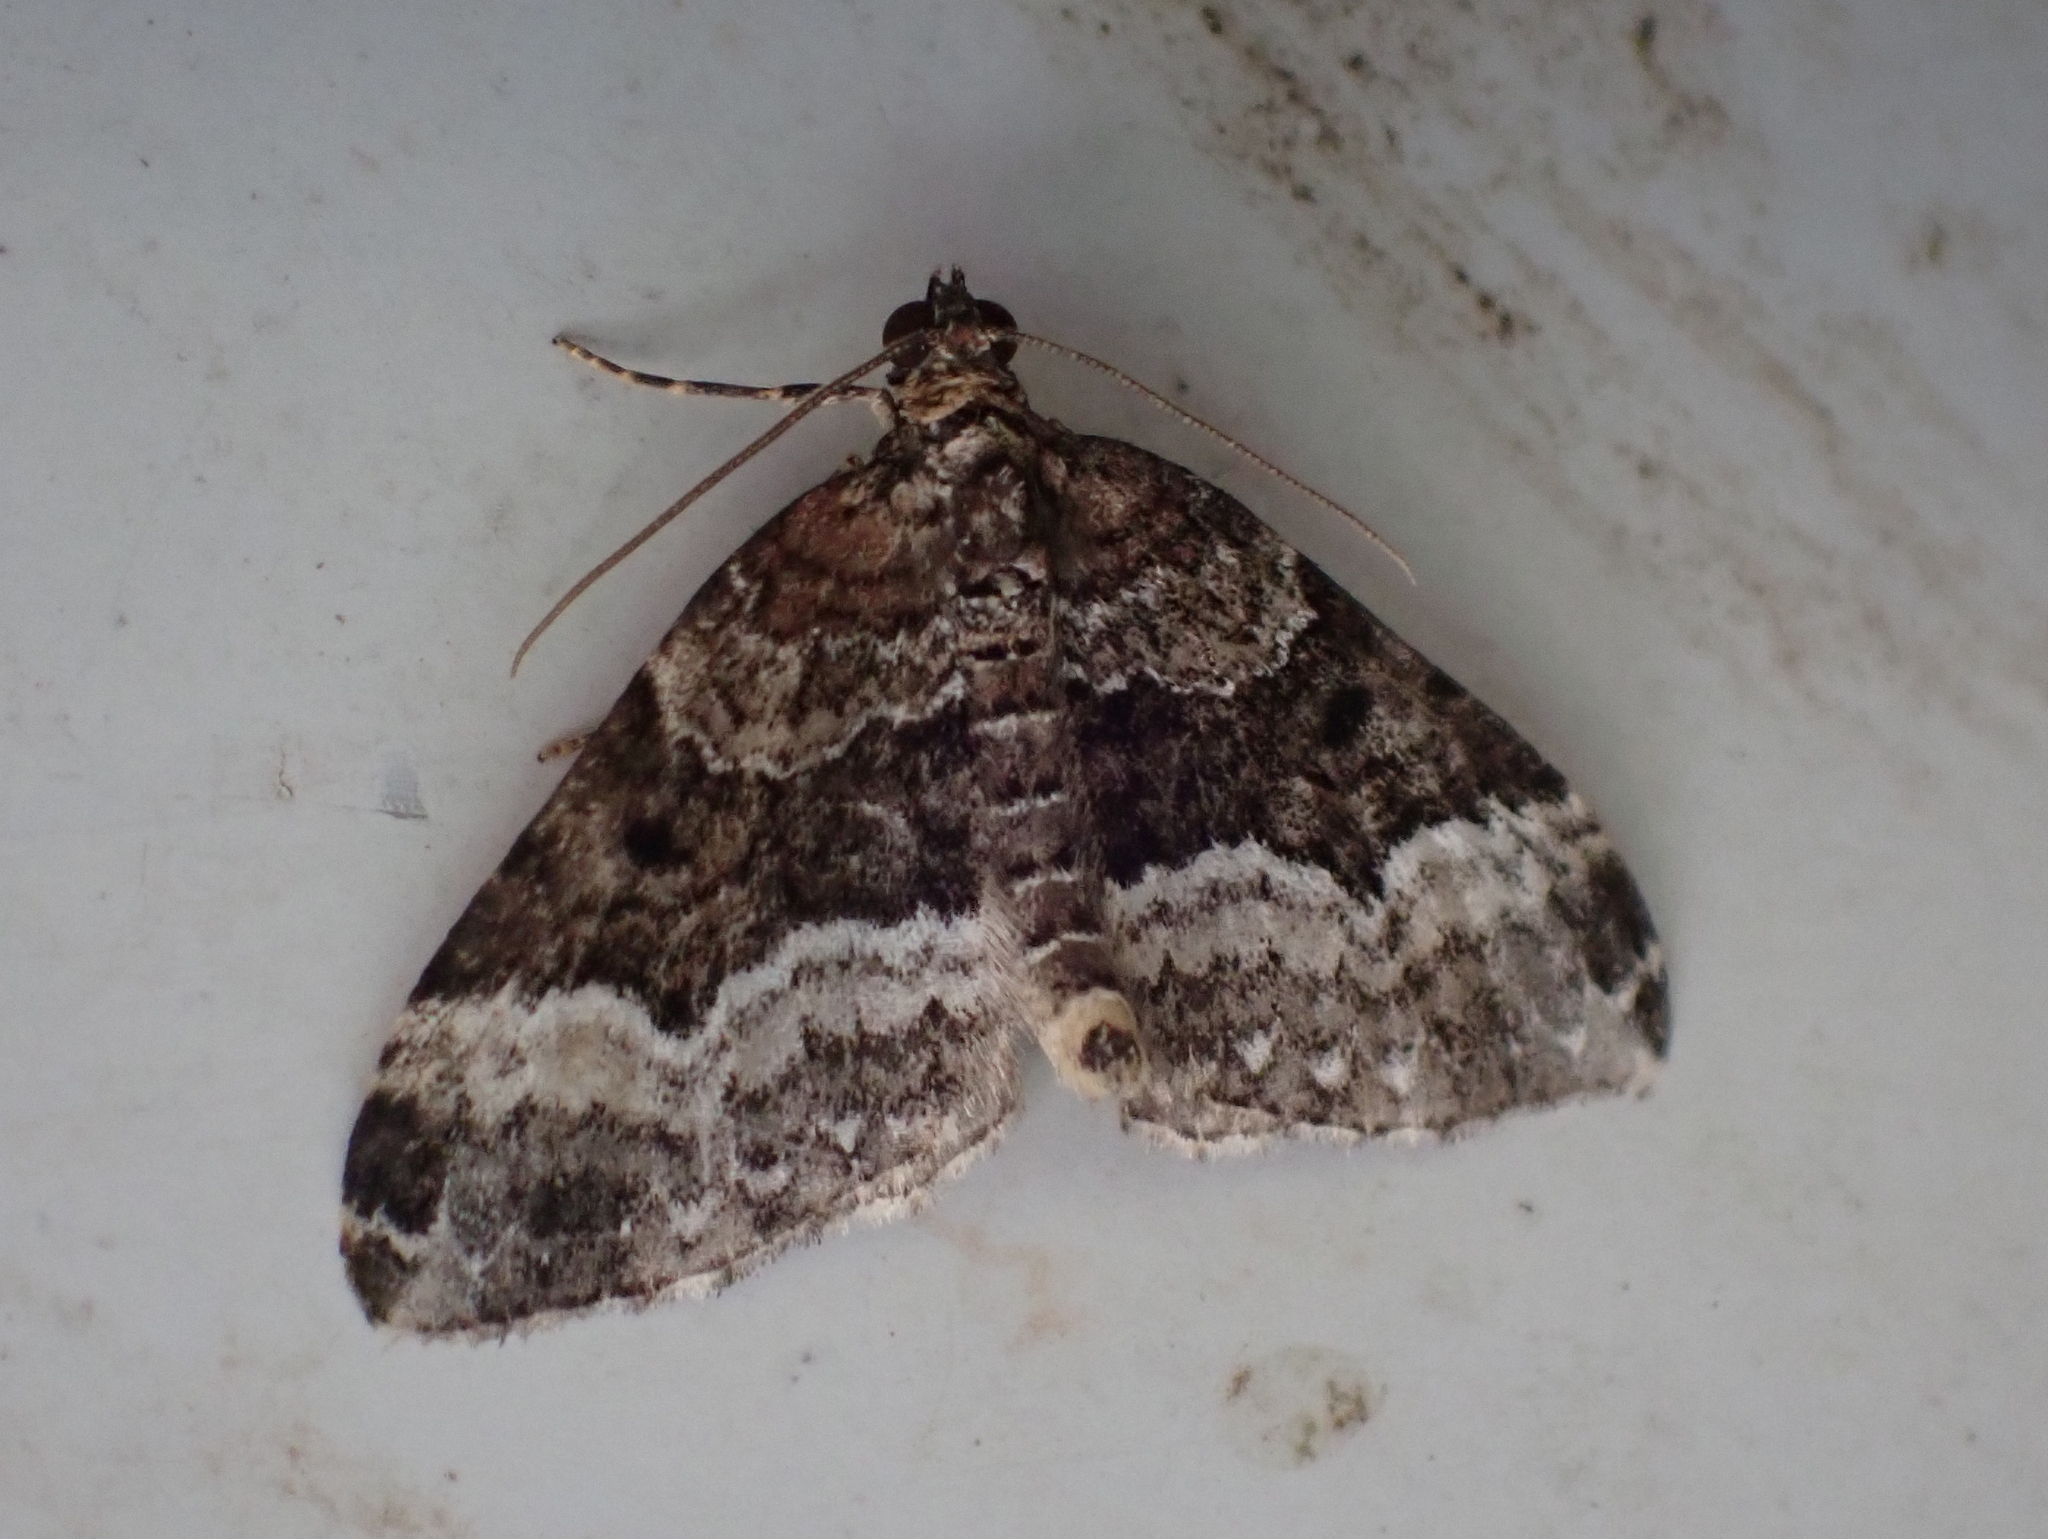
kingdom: Animalia
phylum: Arthropoda
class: Insecta
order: Lepidoptera
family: Geometridae
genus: Euphyia
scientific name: Euphyia intermediata
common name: Sharp-angled carpet
